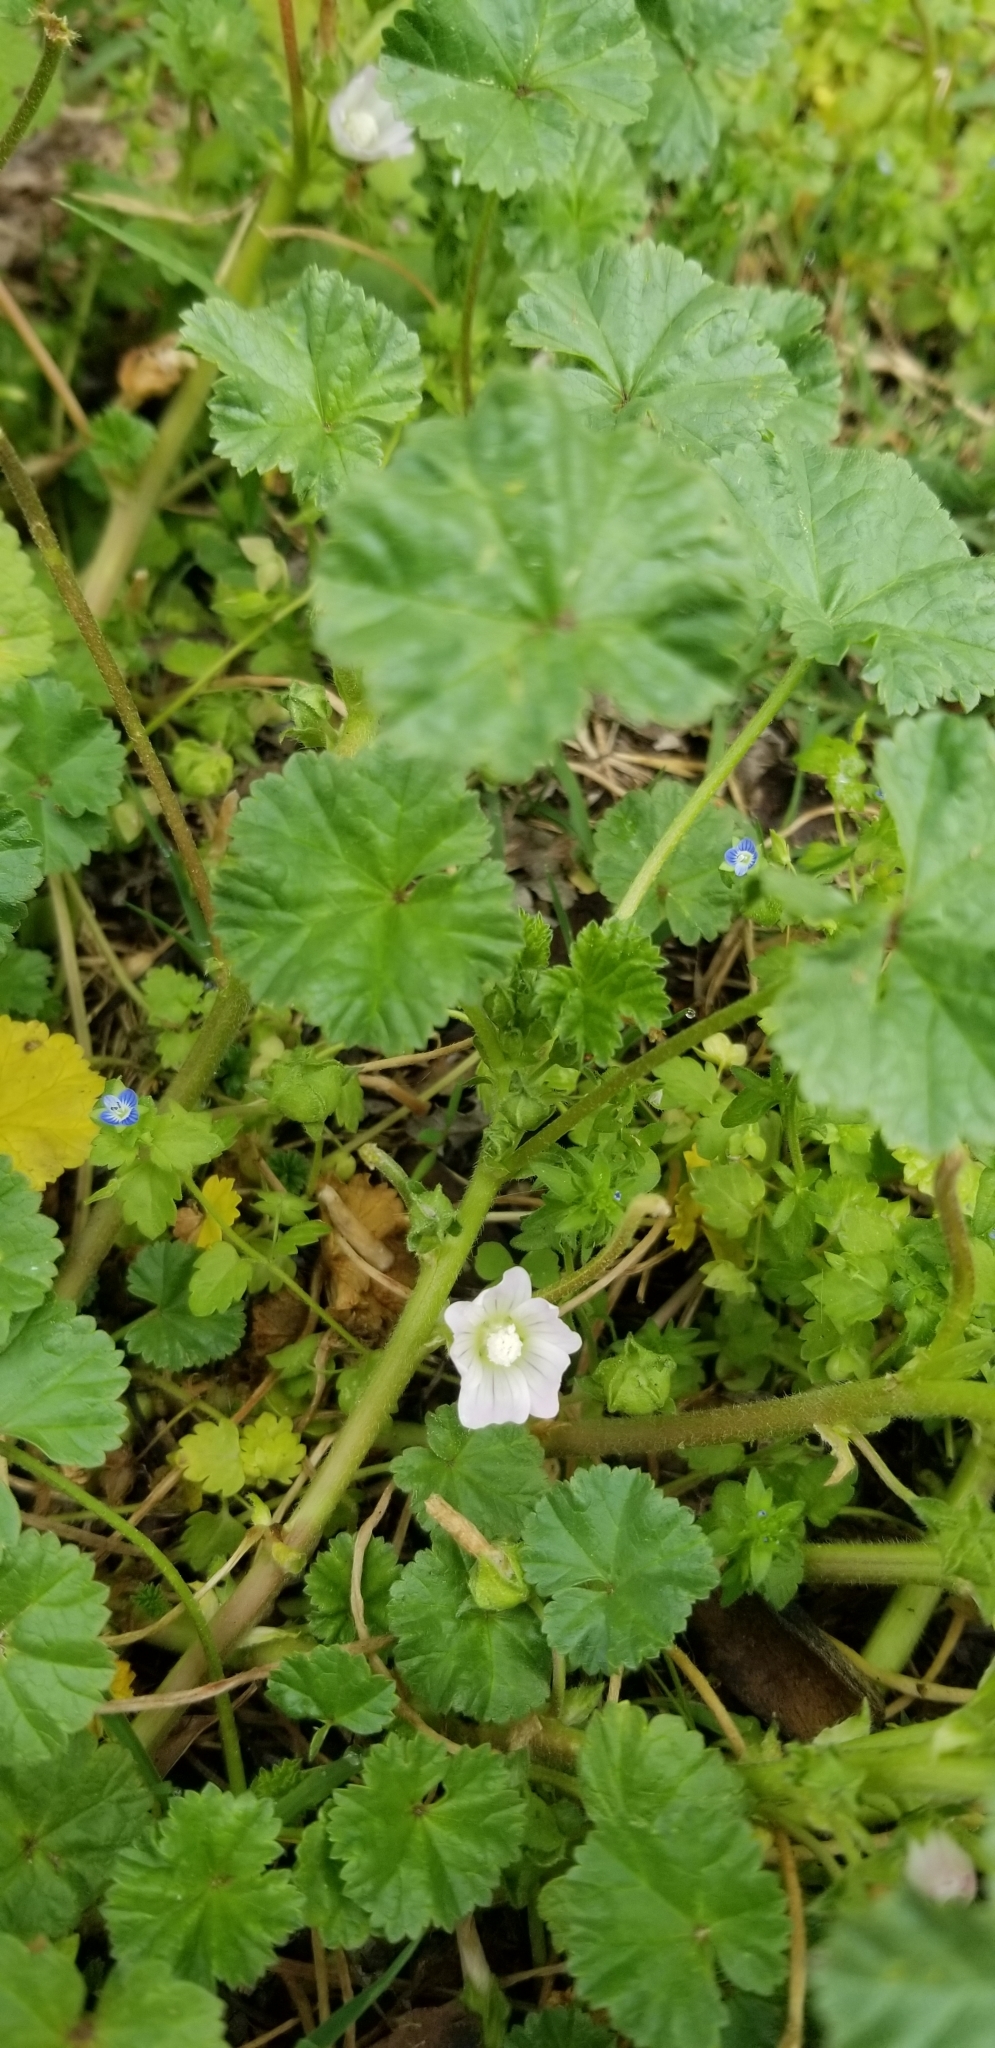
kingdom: Plantae
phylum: Tracheophyta
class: Magnoliopsida
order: Malvales
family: Malvaceae
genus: Malva
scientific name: Malva neglecta
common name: Common mallow
